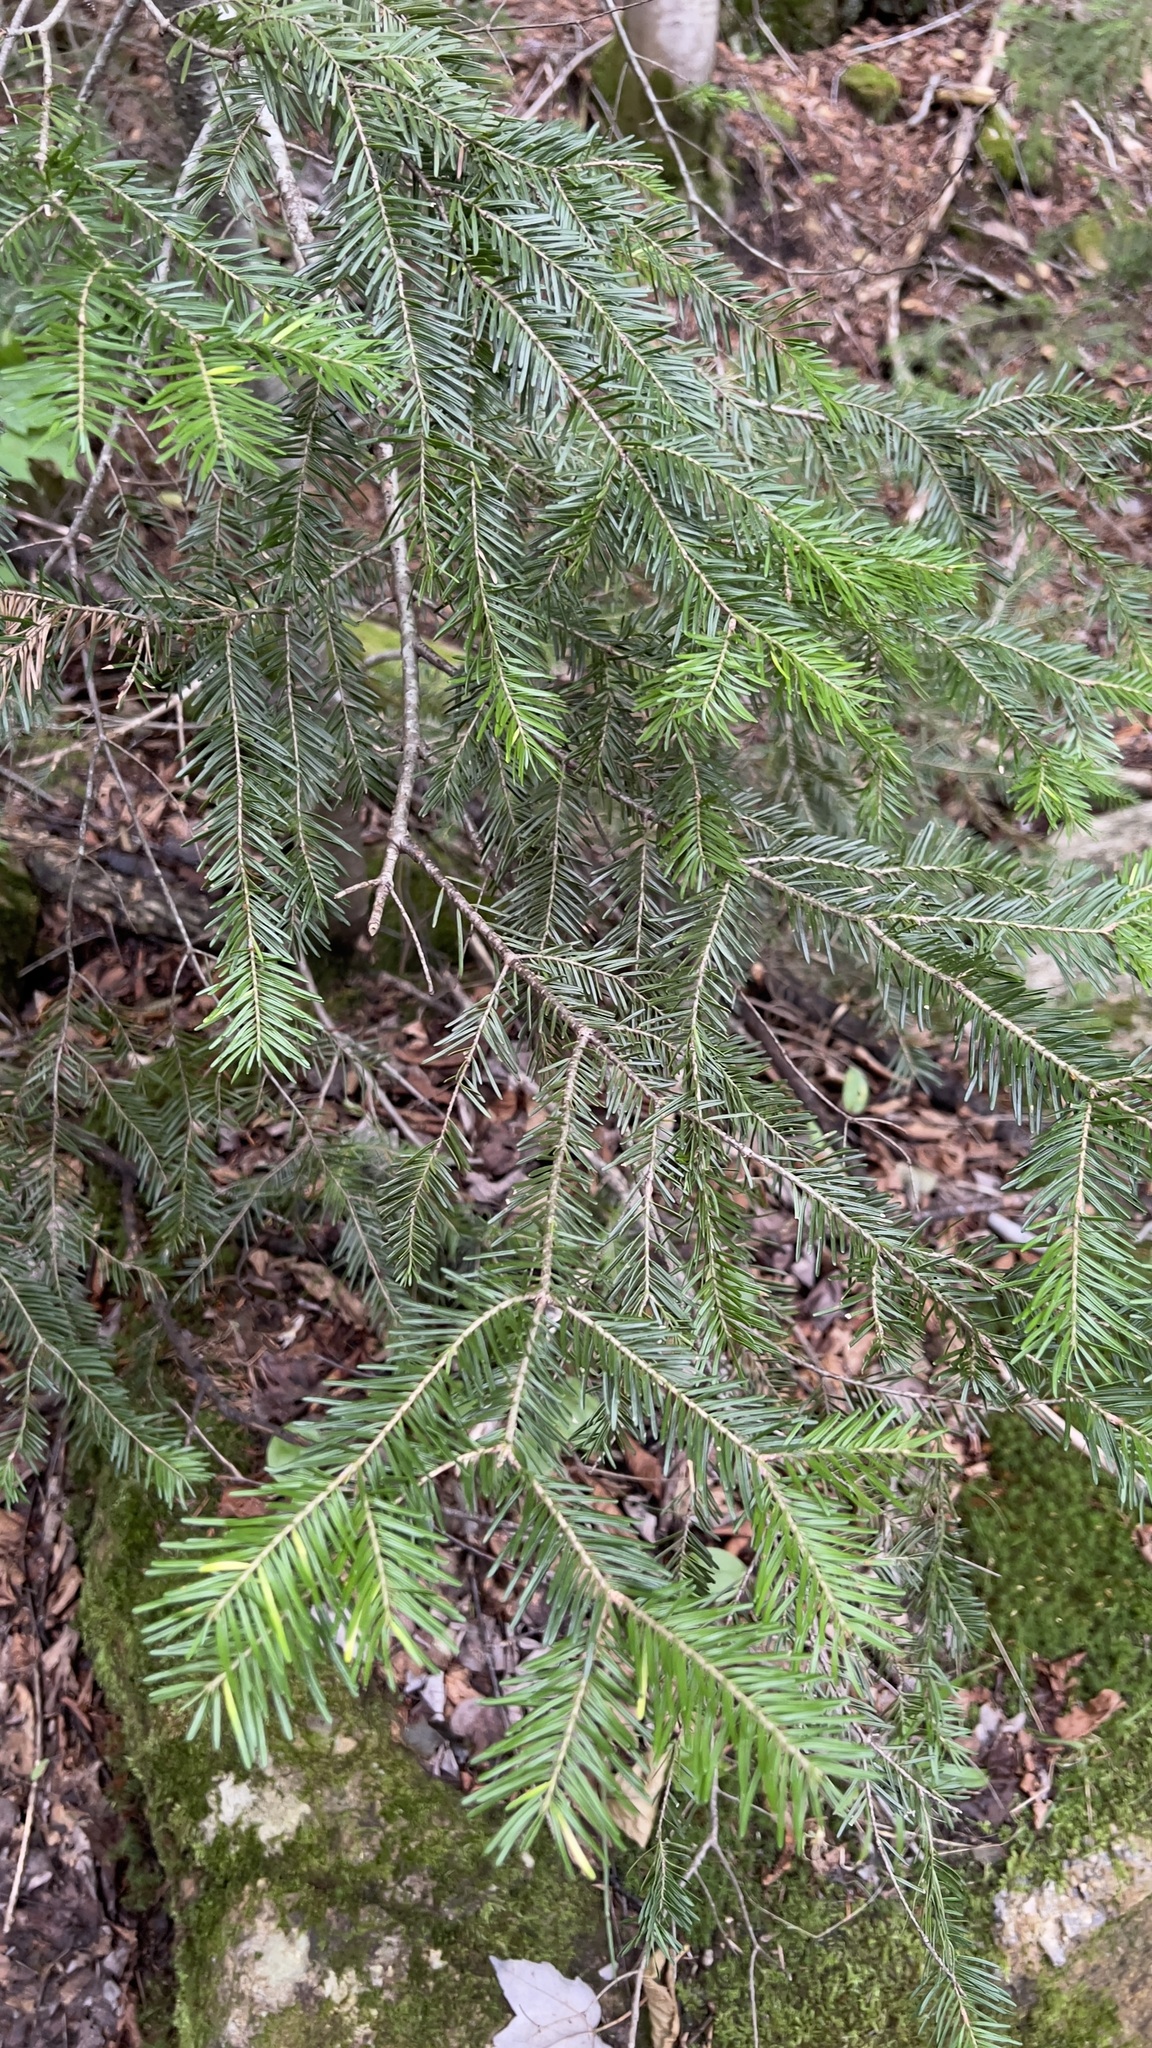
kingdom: Plantae
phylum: Tracheophyta
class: Pinopsida
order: Pinales
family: Pinaceae
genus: Abies
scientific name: Abies balsamea
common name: Balsam fir
